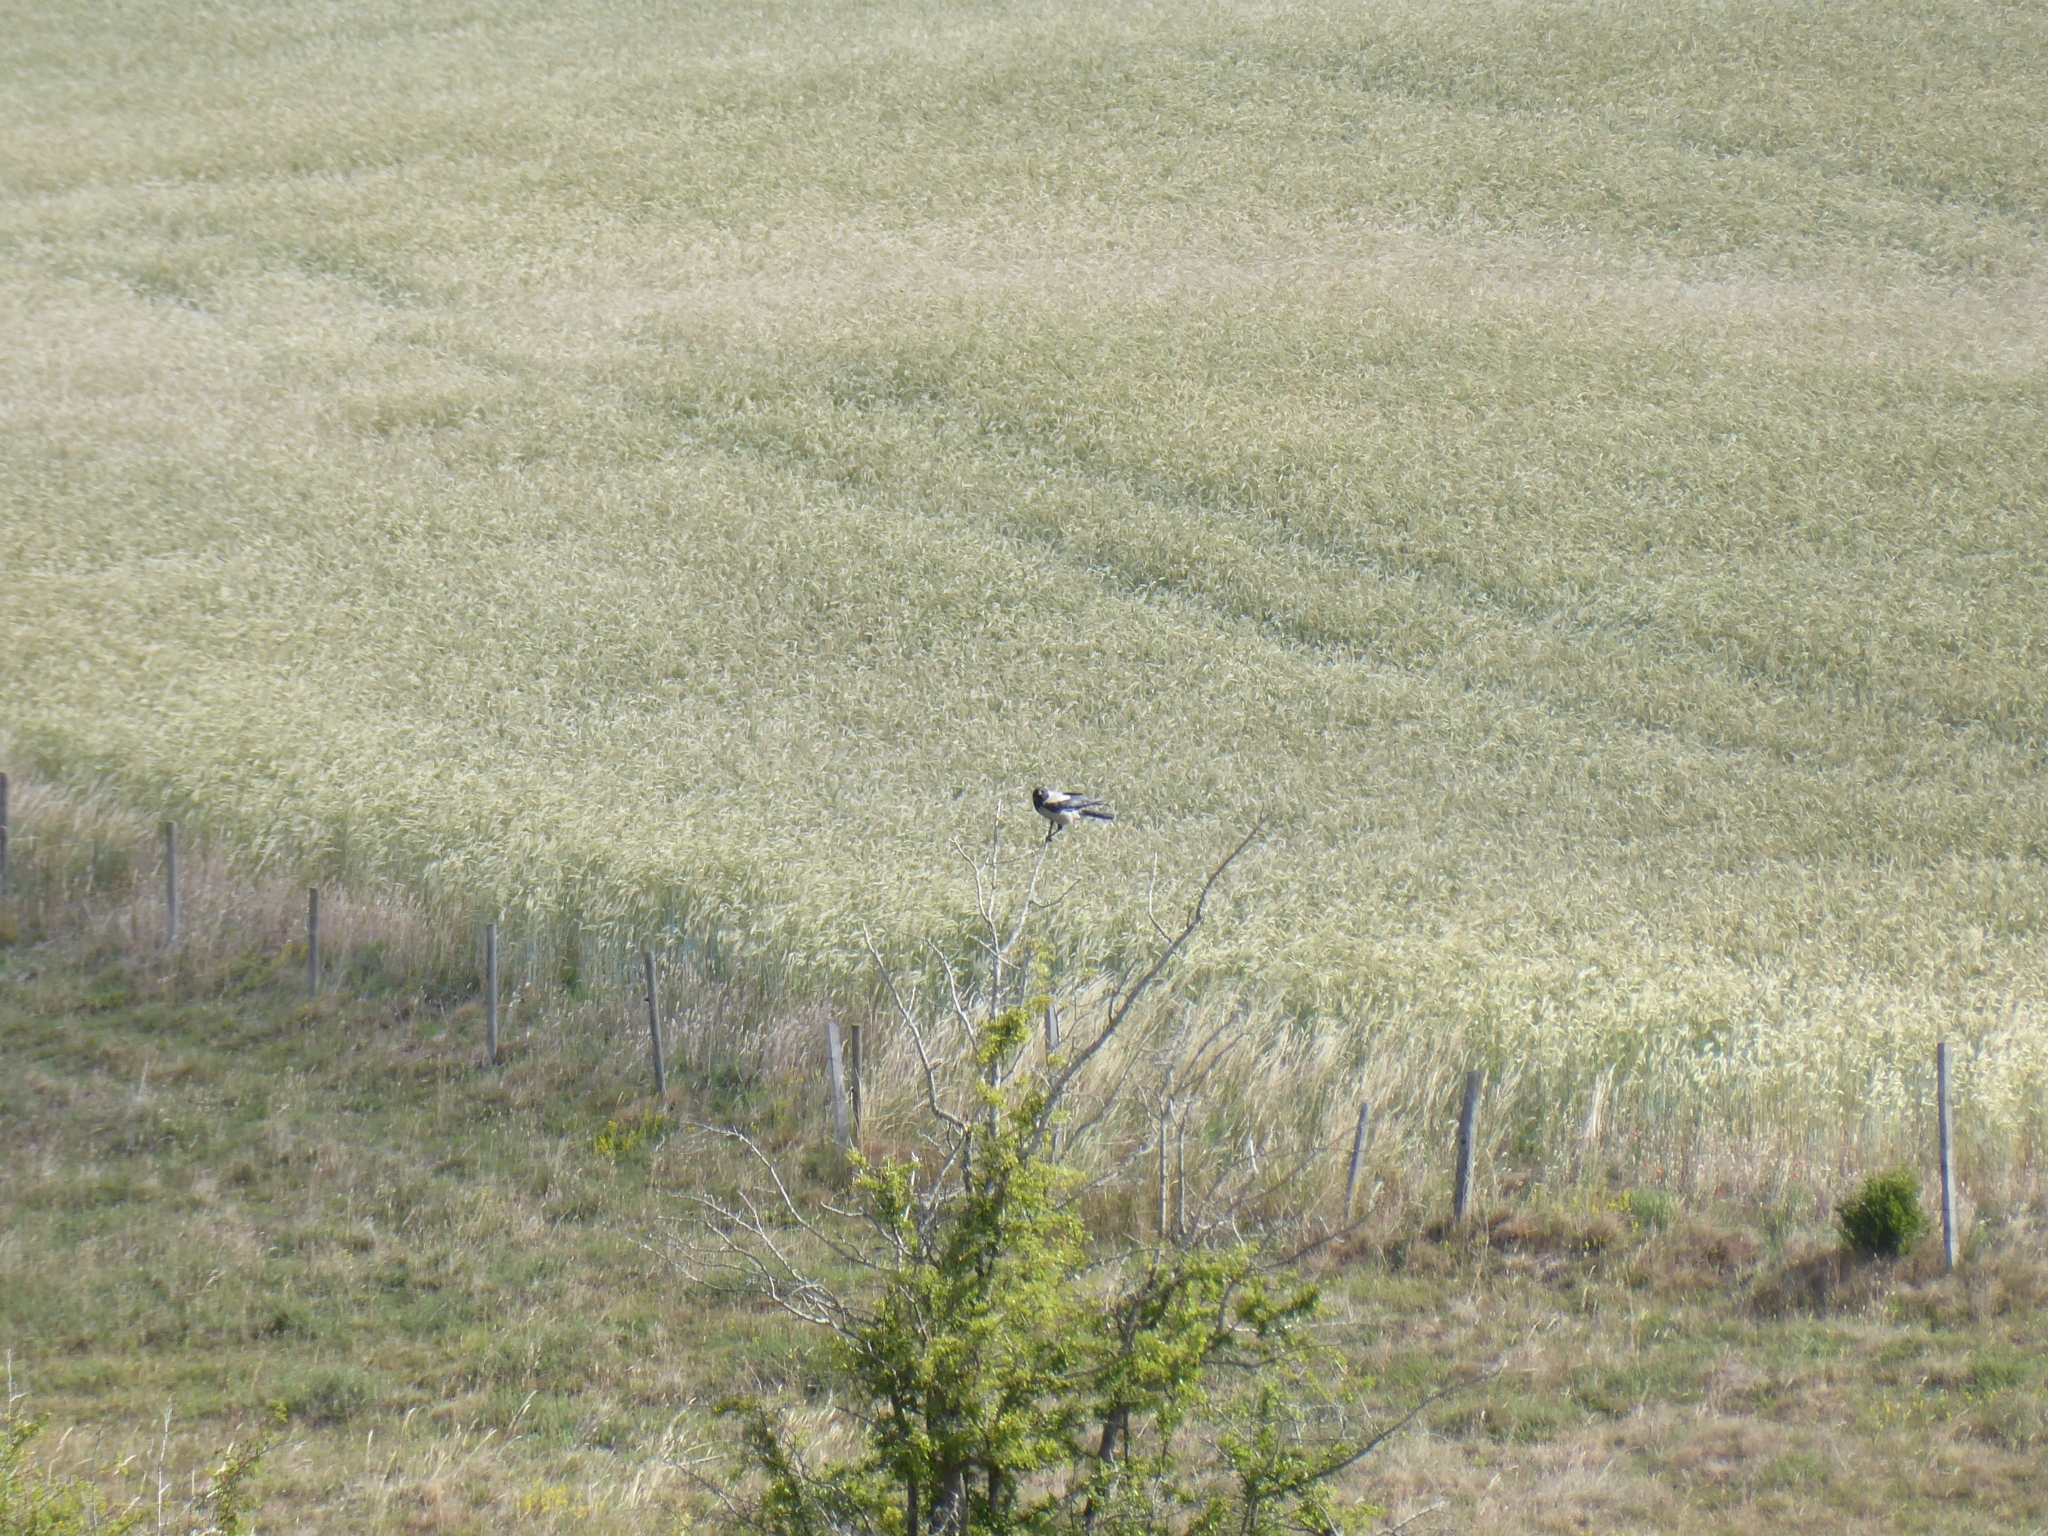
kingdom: Animalia
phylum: Chordata
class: Aves
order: Passeriformes
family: Corvidae
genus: Corvus
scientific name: Corvus cornix
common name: Hooded crow
